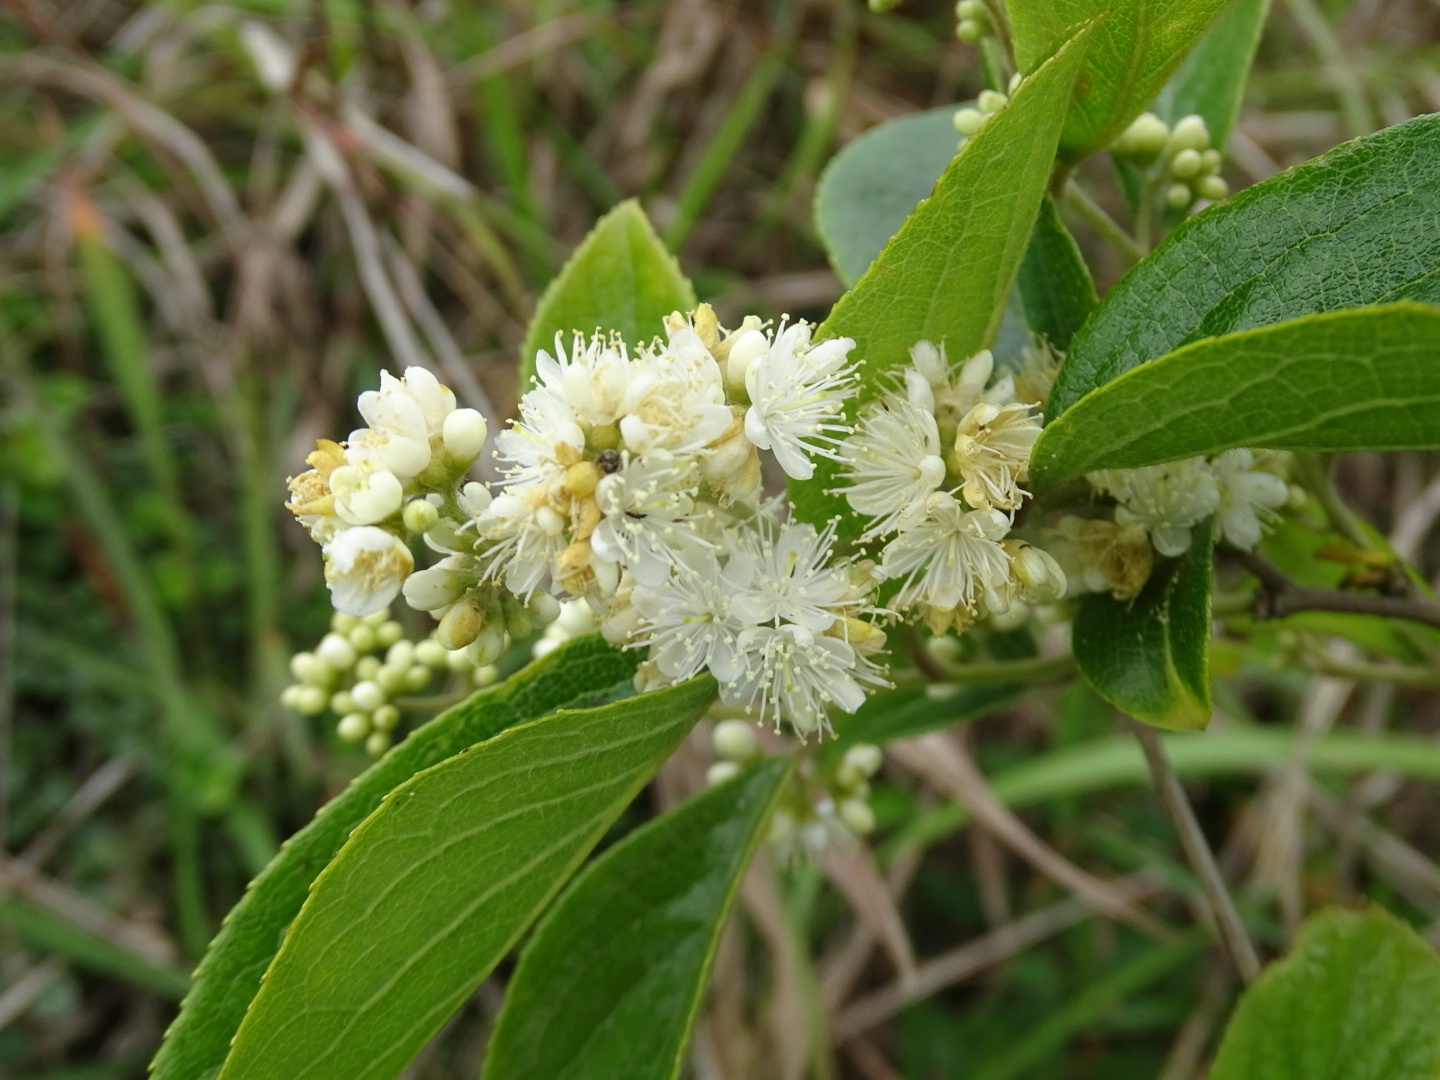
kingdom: Plantae
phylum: Tracheophyta
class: Magnoliopsida
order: Ericales
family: Symplocaceae
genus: Symplocos
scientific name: Symplocos paniculata
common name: Sapphire-berry
